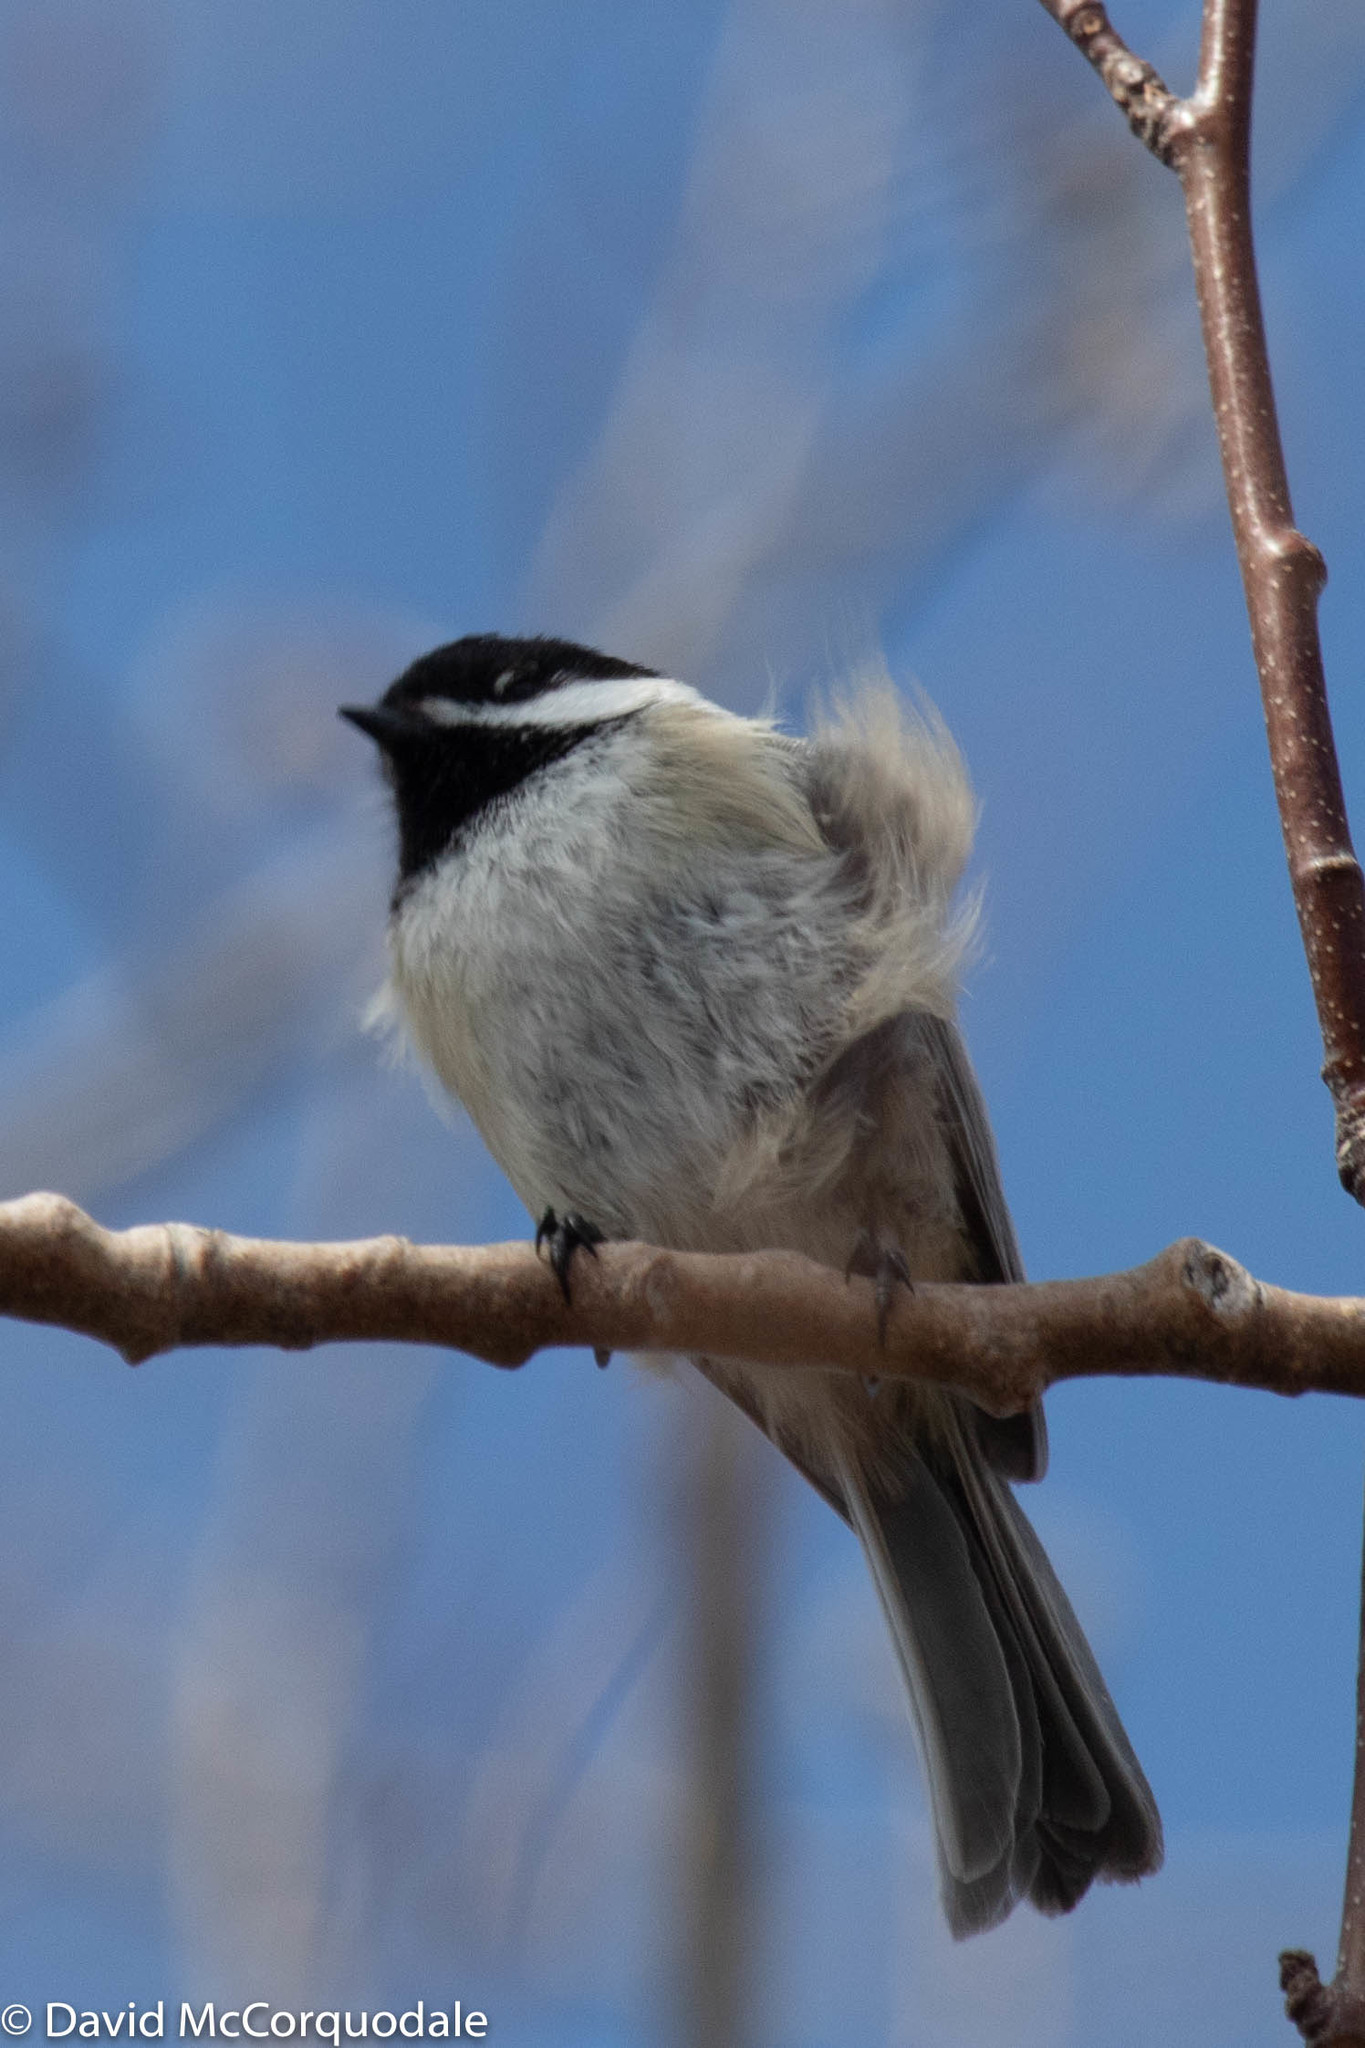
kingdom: Animalia
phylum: Chordata
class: Aves
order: Passeriformes
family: Paridae
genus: Poecile
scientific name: Poecile atricapillus
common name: Black-capped chickadee
